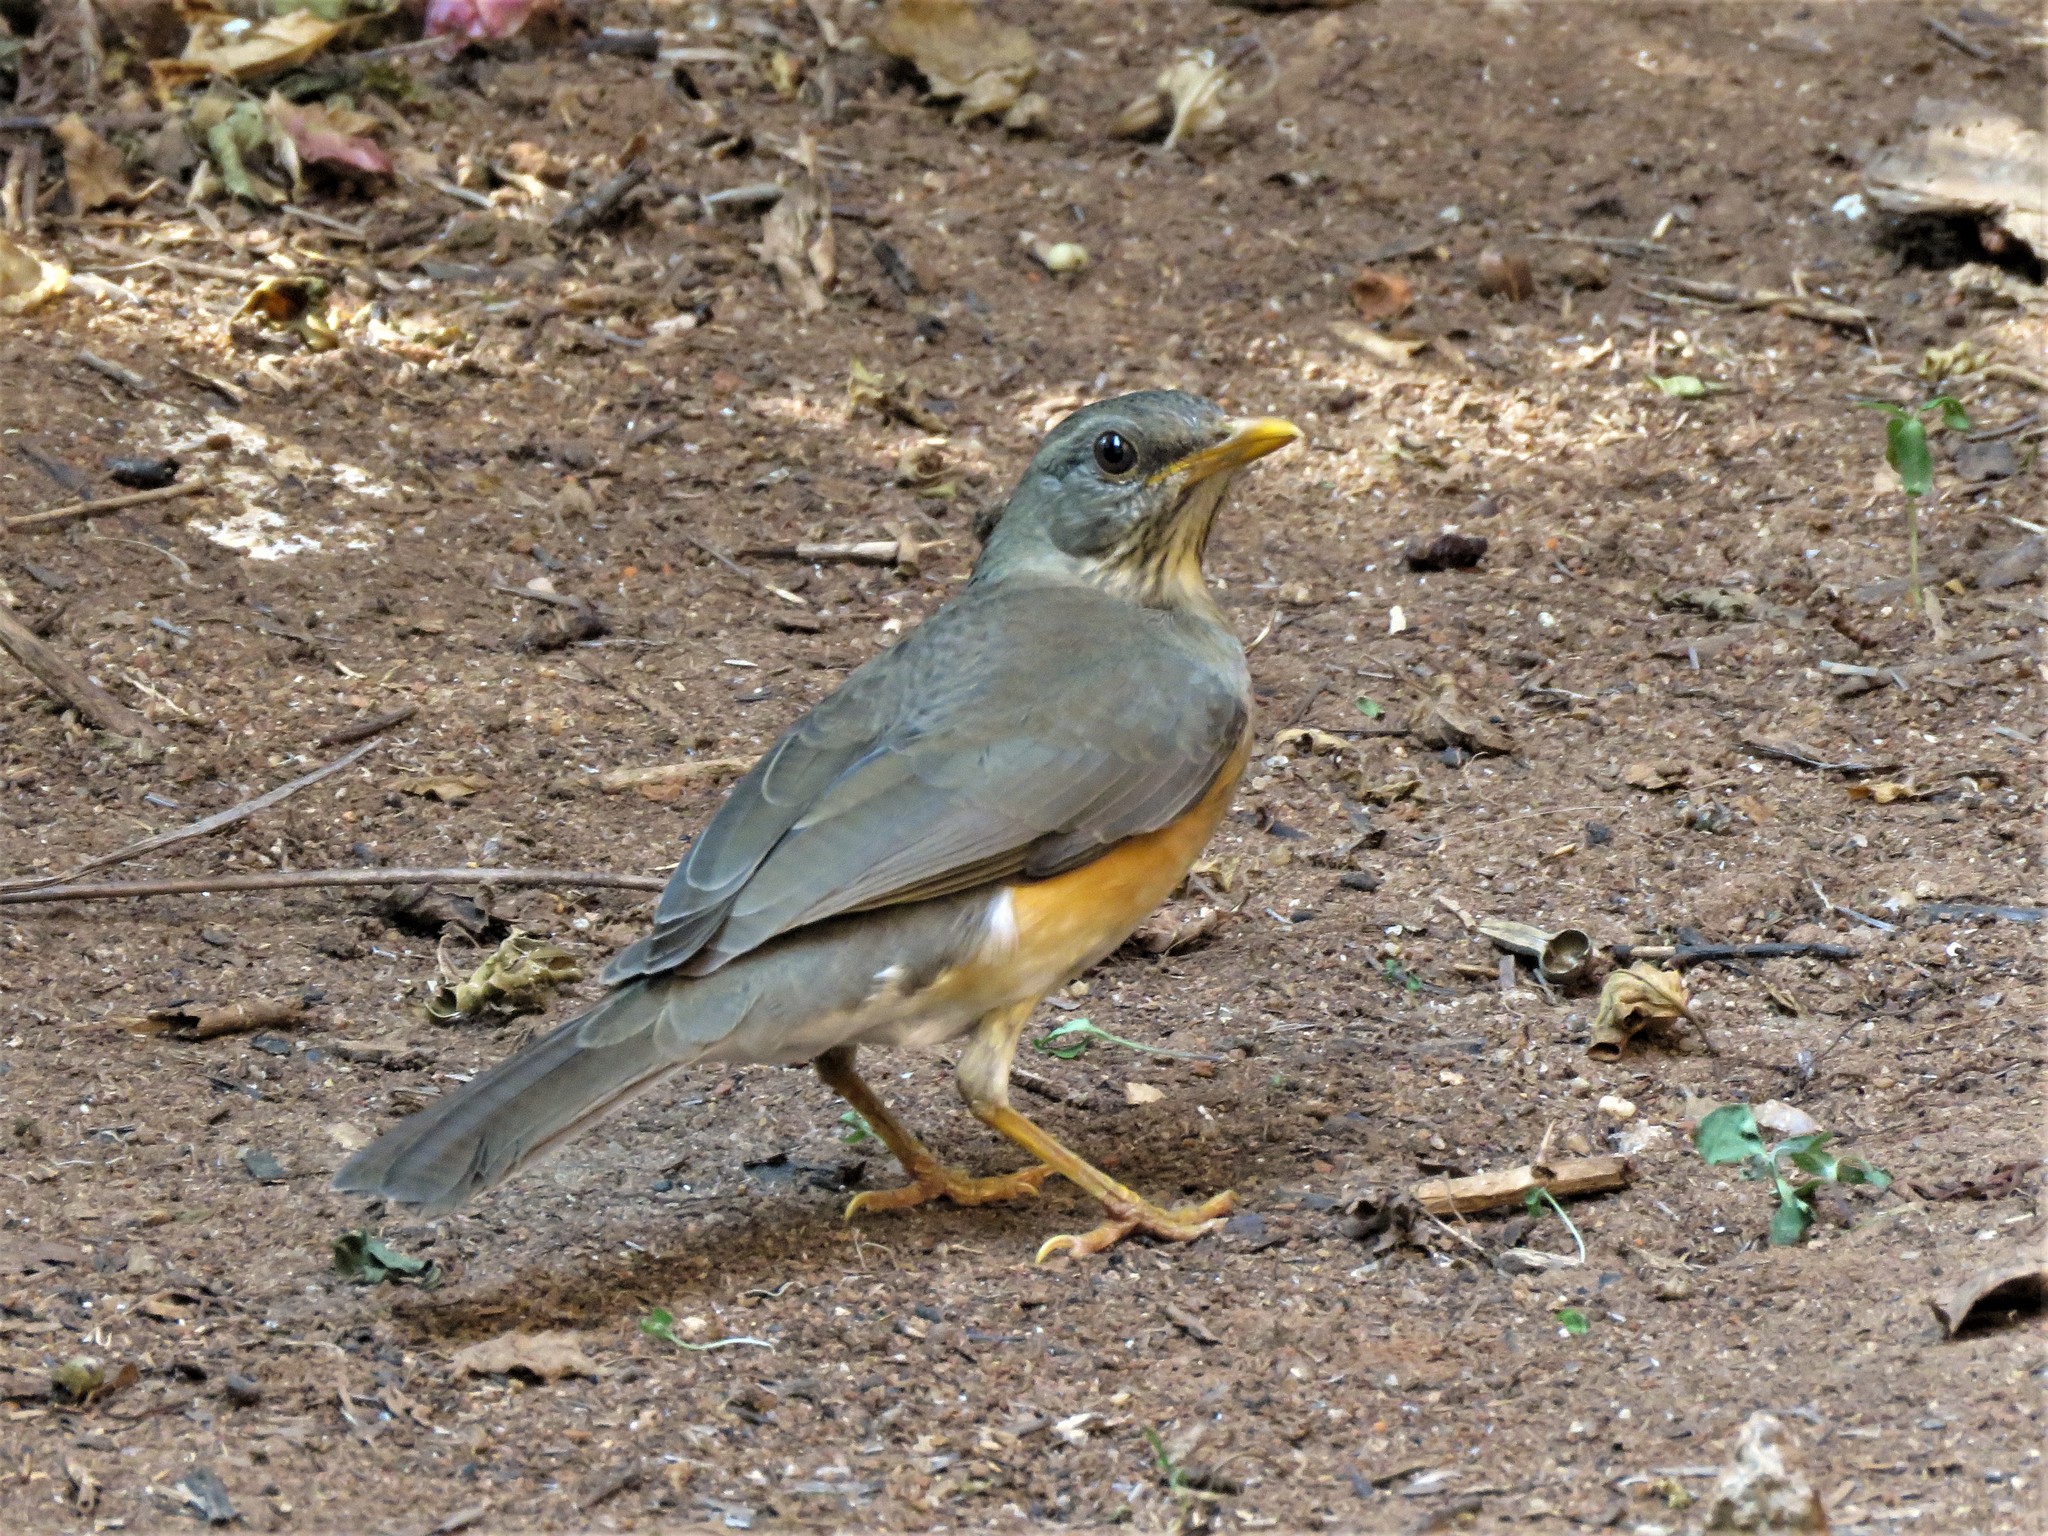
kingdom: Animalia
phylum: Chordata
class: Aves
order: Passeriformes
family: Turdidae
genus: Turdus
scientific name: Turdus pelios
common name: African thrush
